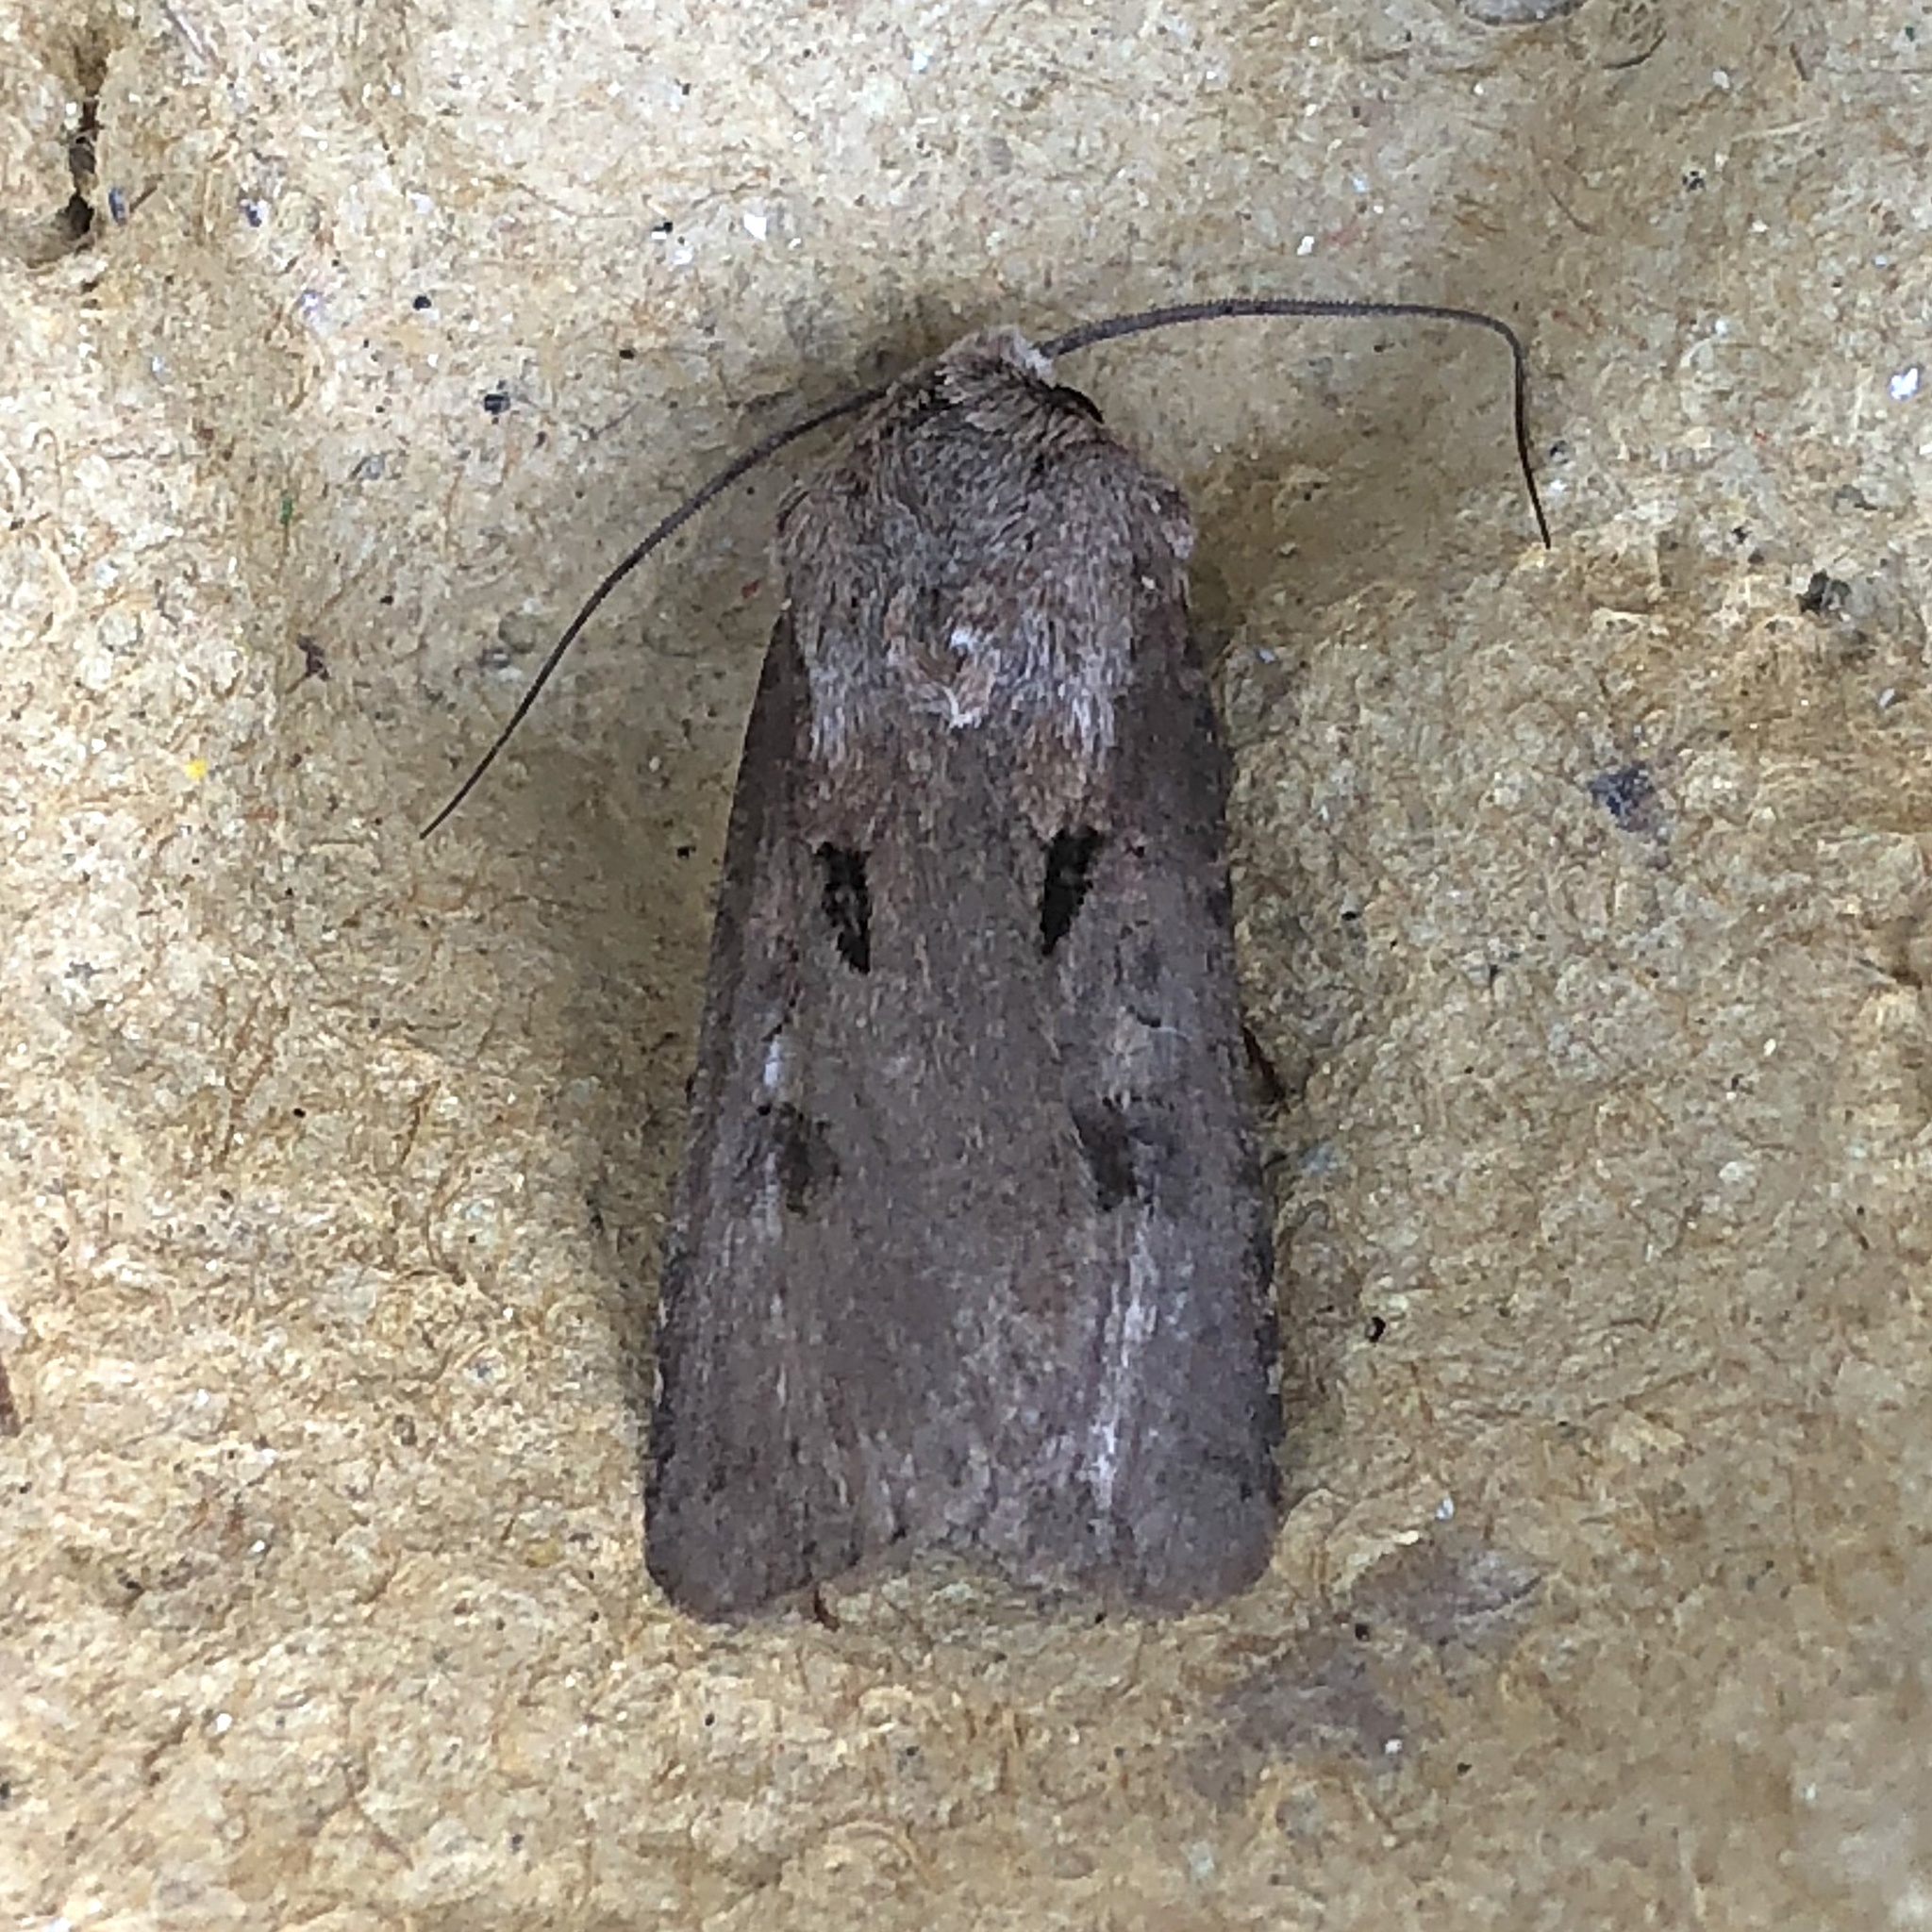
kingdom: Animalia
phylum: Arthropoda
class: Insecta
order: Lepidoptera
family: Noctuidae
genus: Agrotis
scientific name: Agrotis exclamationis
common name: Heart and dart
